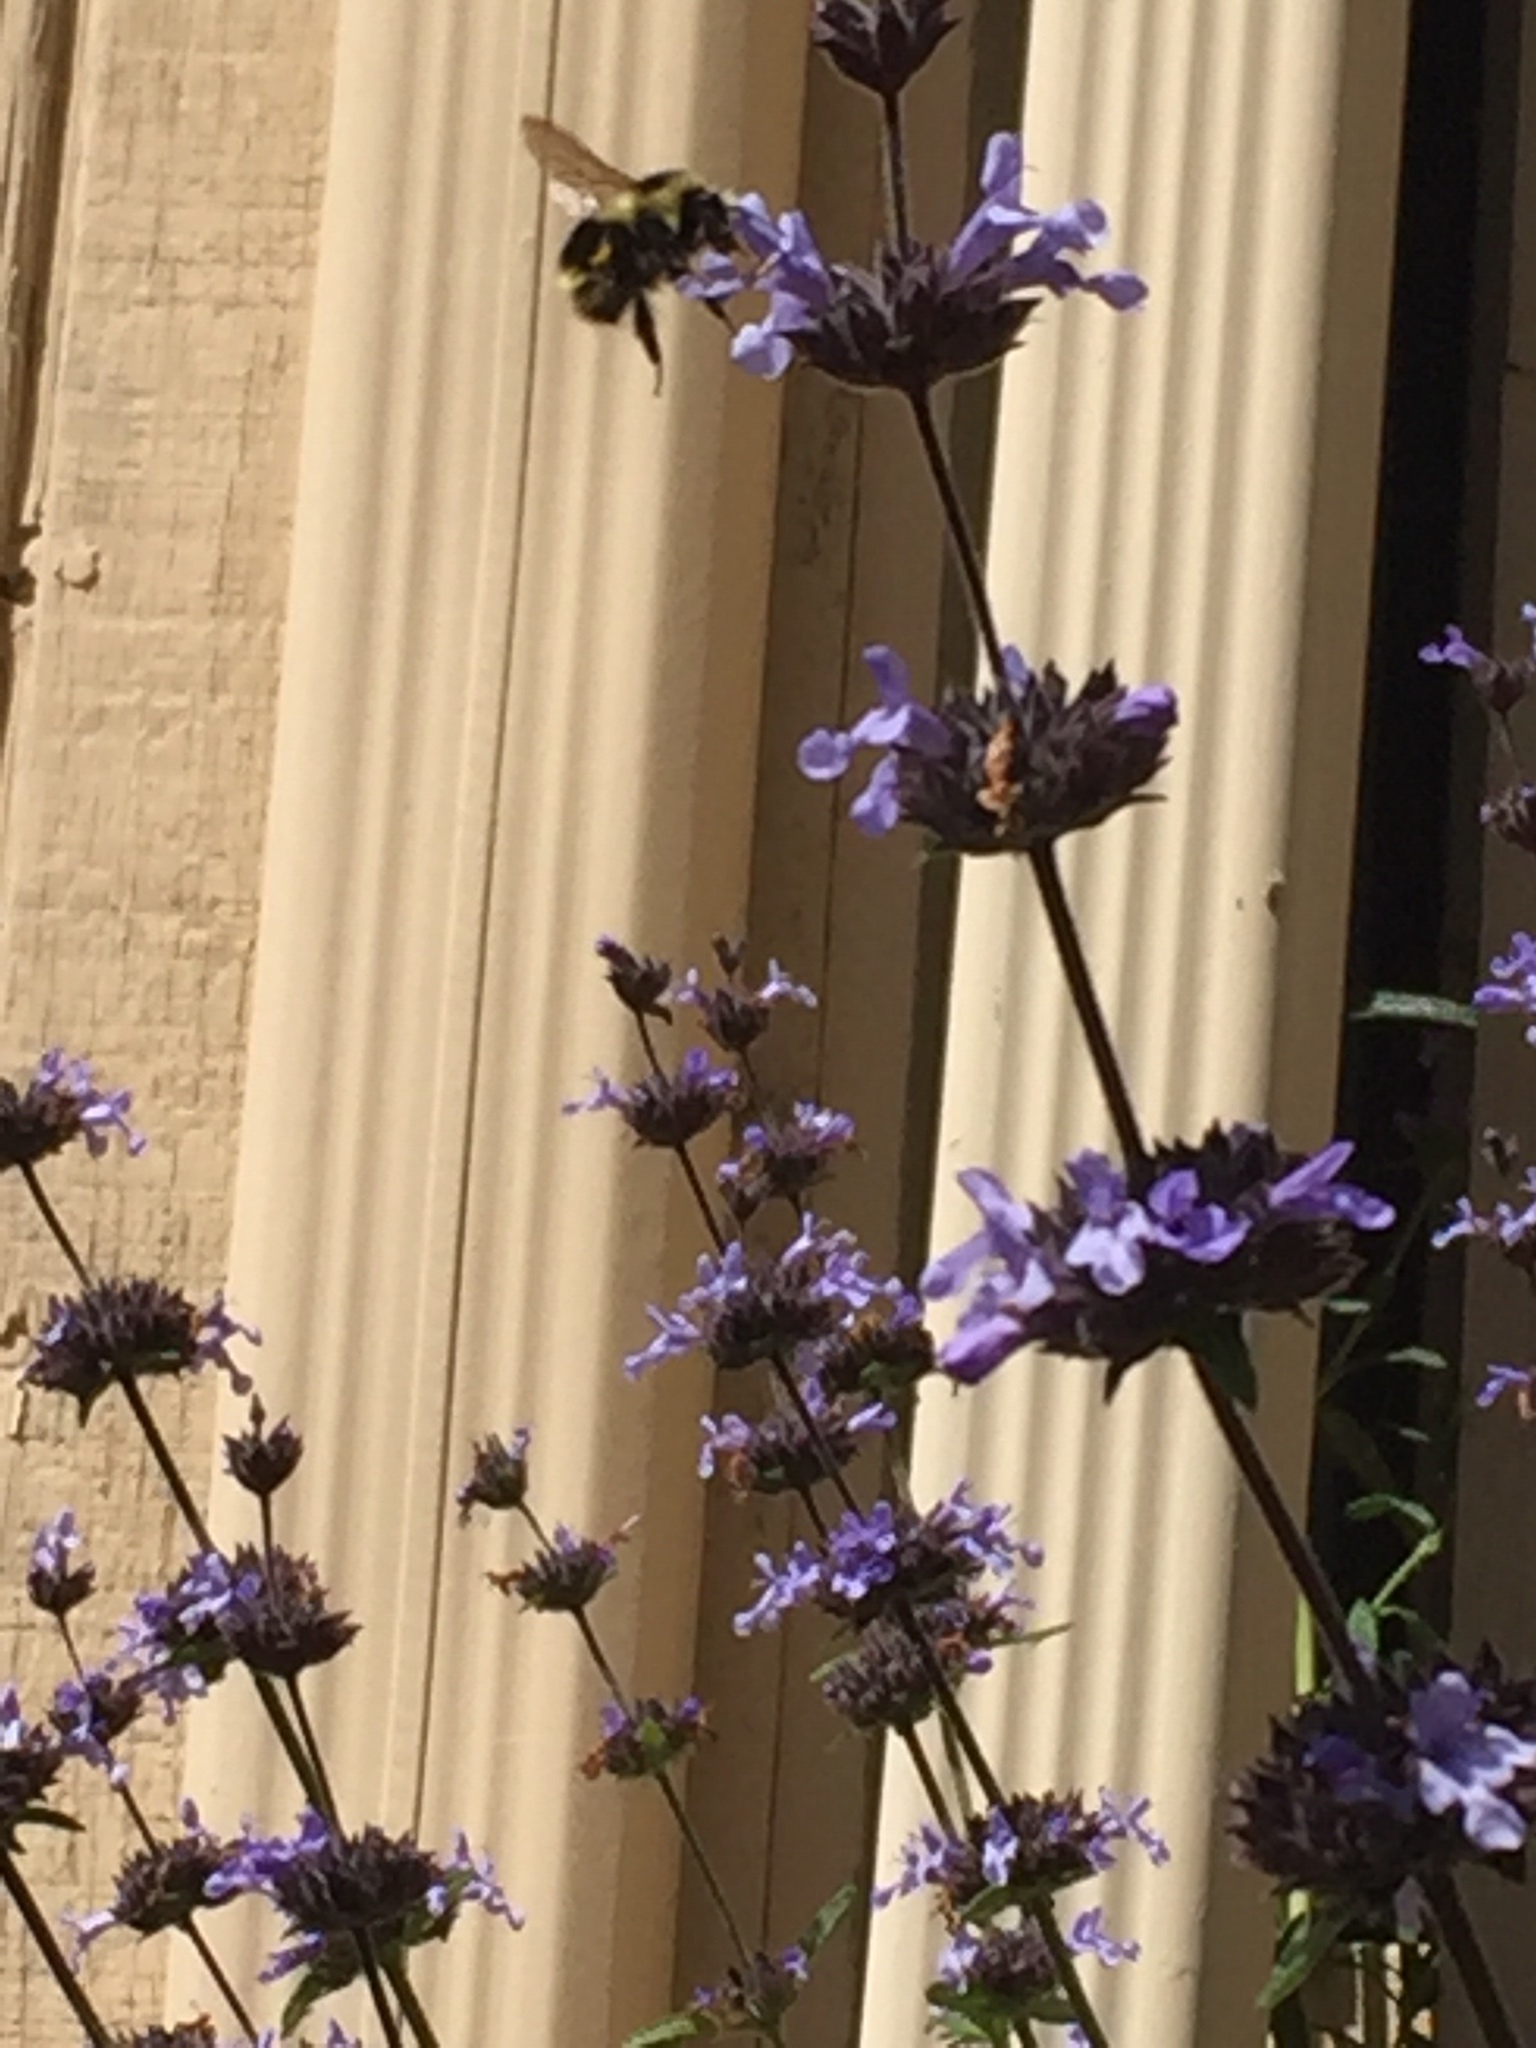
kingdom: Animalia
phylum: Arthropoda
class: Insecta
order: Hymenoptera
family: Apidae
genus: Bombus
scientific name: Bombus melanopygus
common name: Black tail bumble bee
